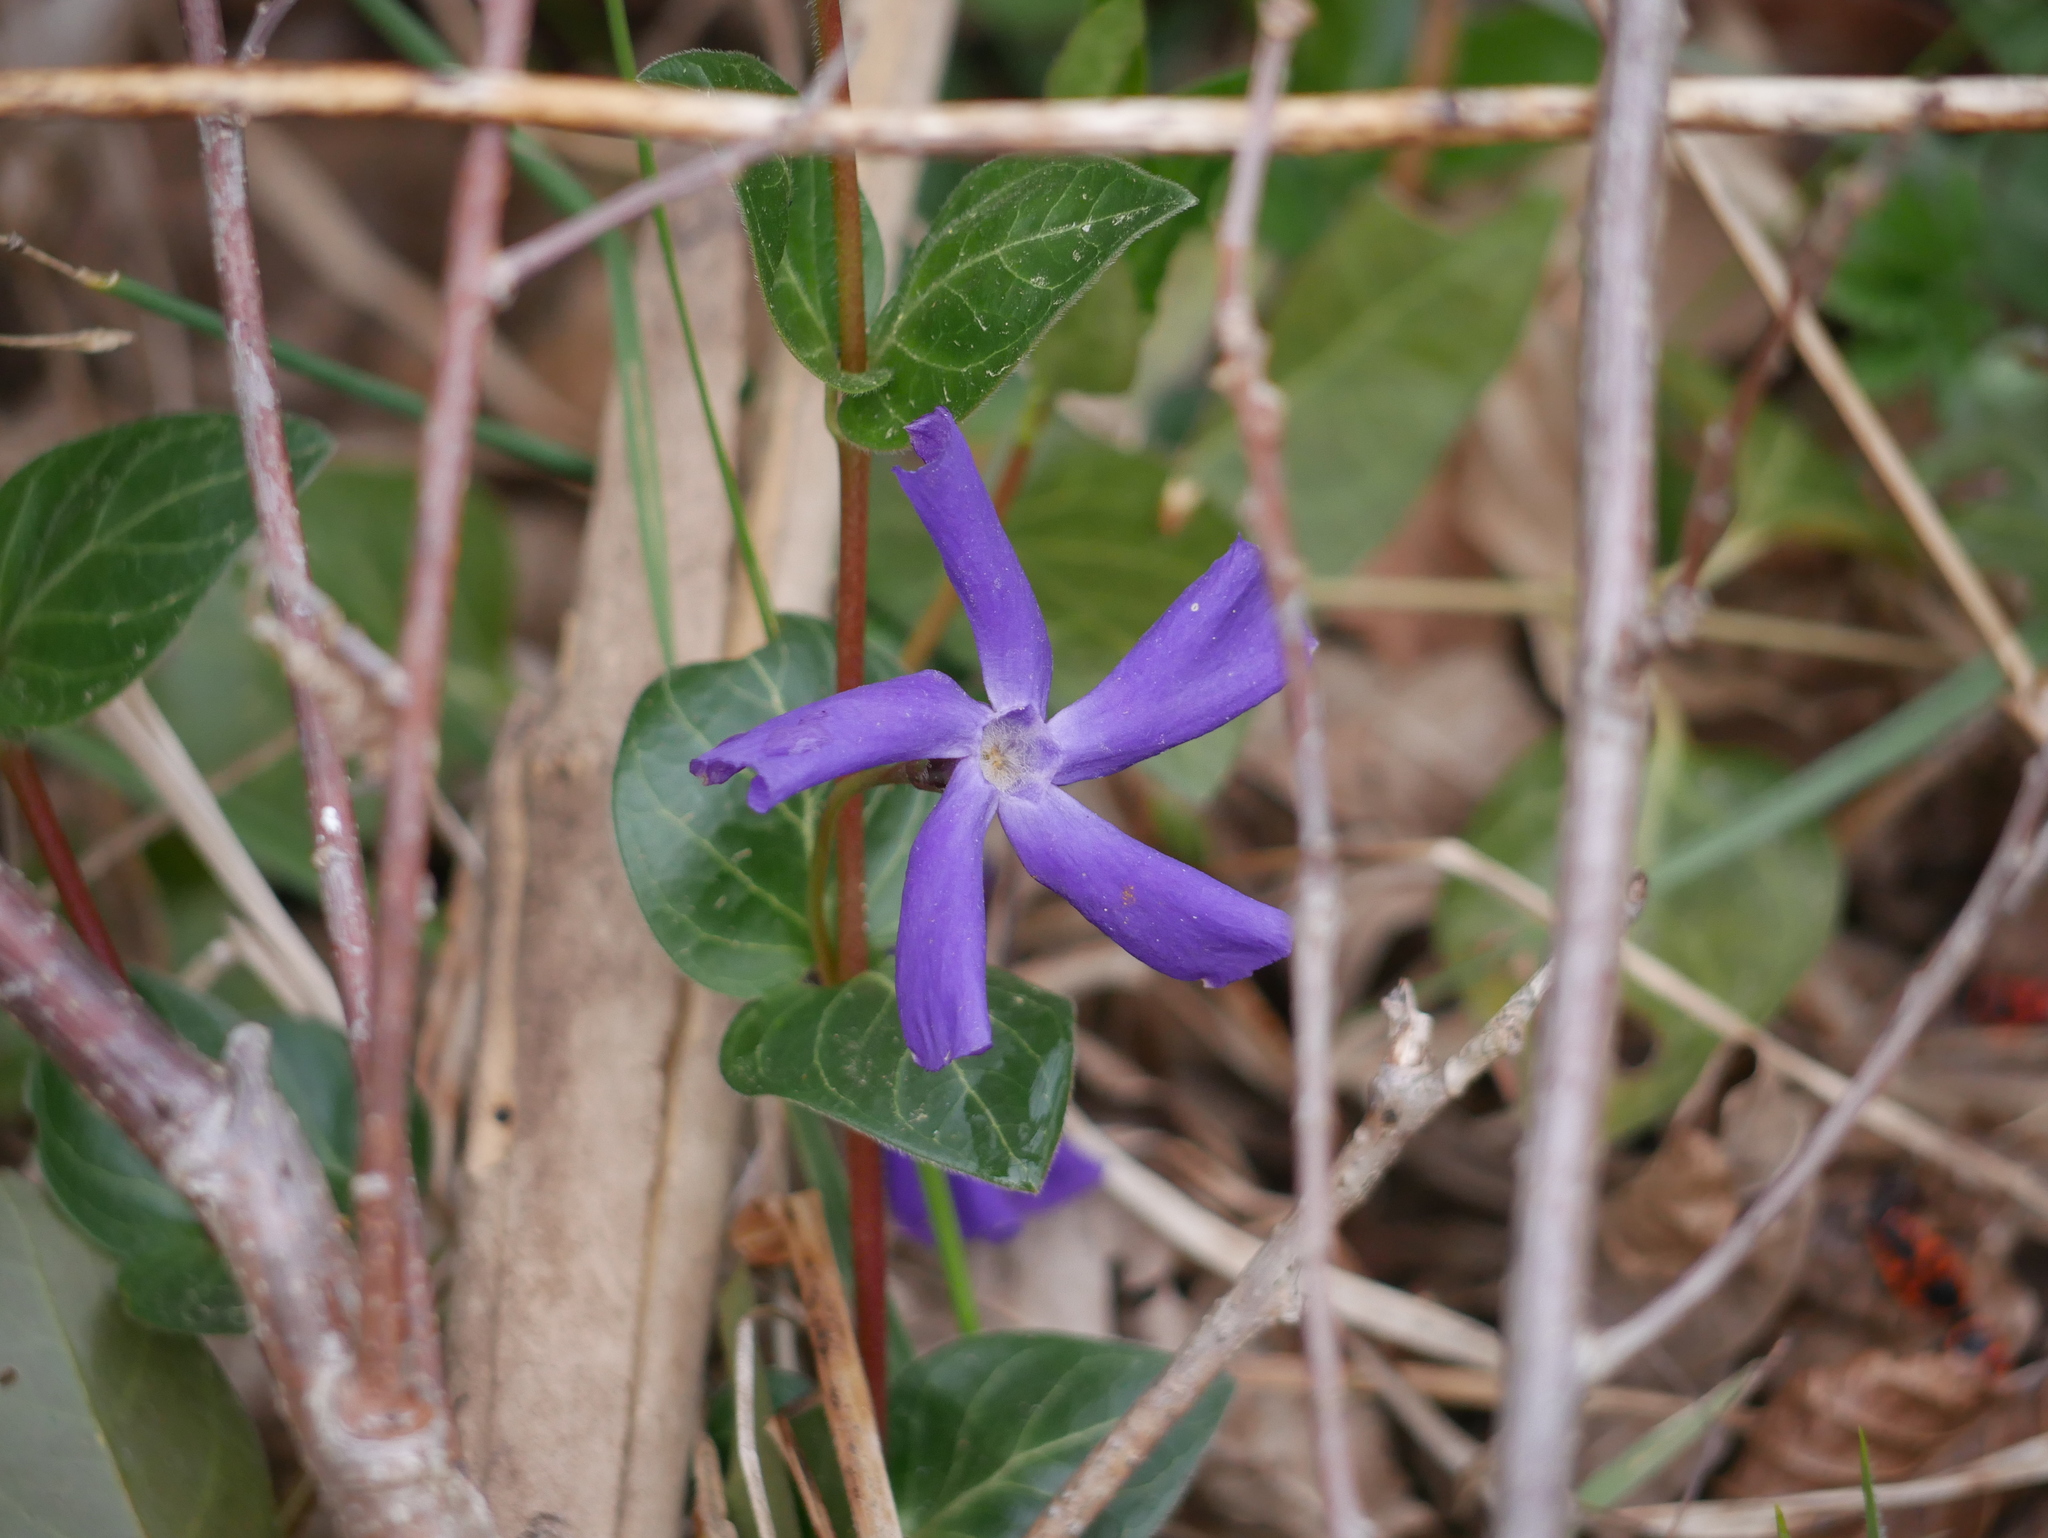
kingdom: Plantae
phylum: Tracheophyta
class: Magnoliopsida
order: Gentianales
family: Apocynaceae
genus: Vinca
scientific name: Vinca major
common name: Greater periwinkle
